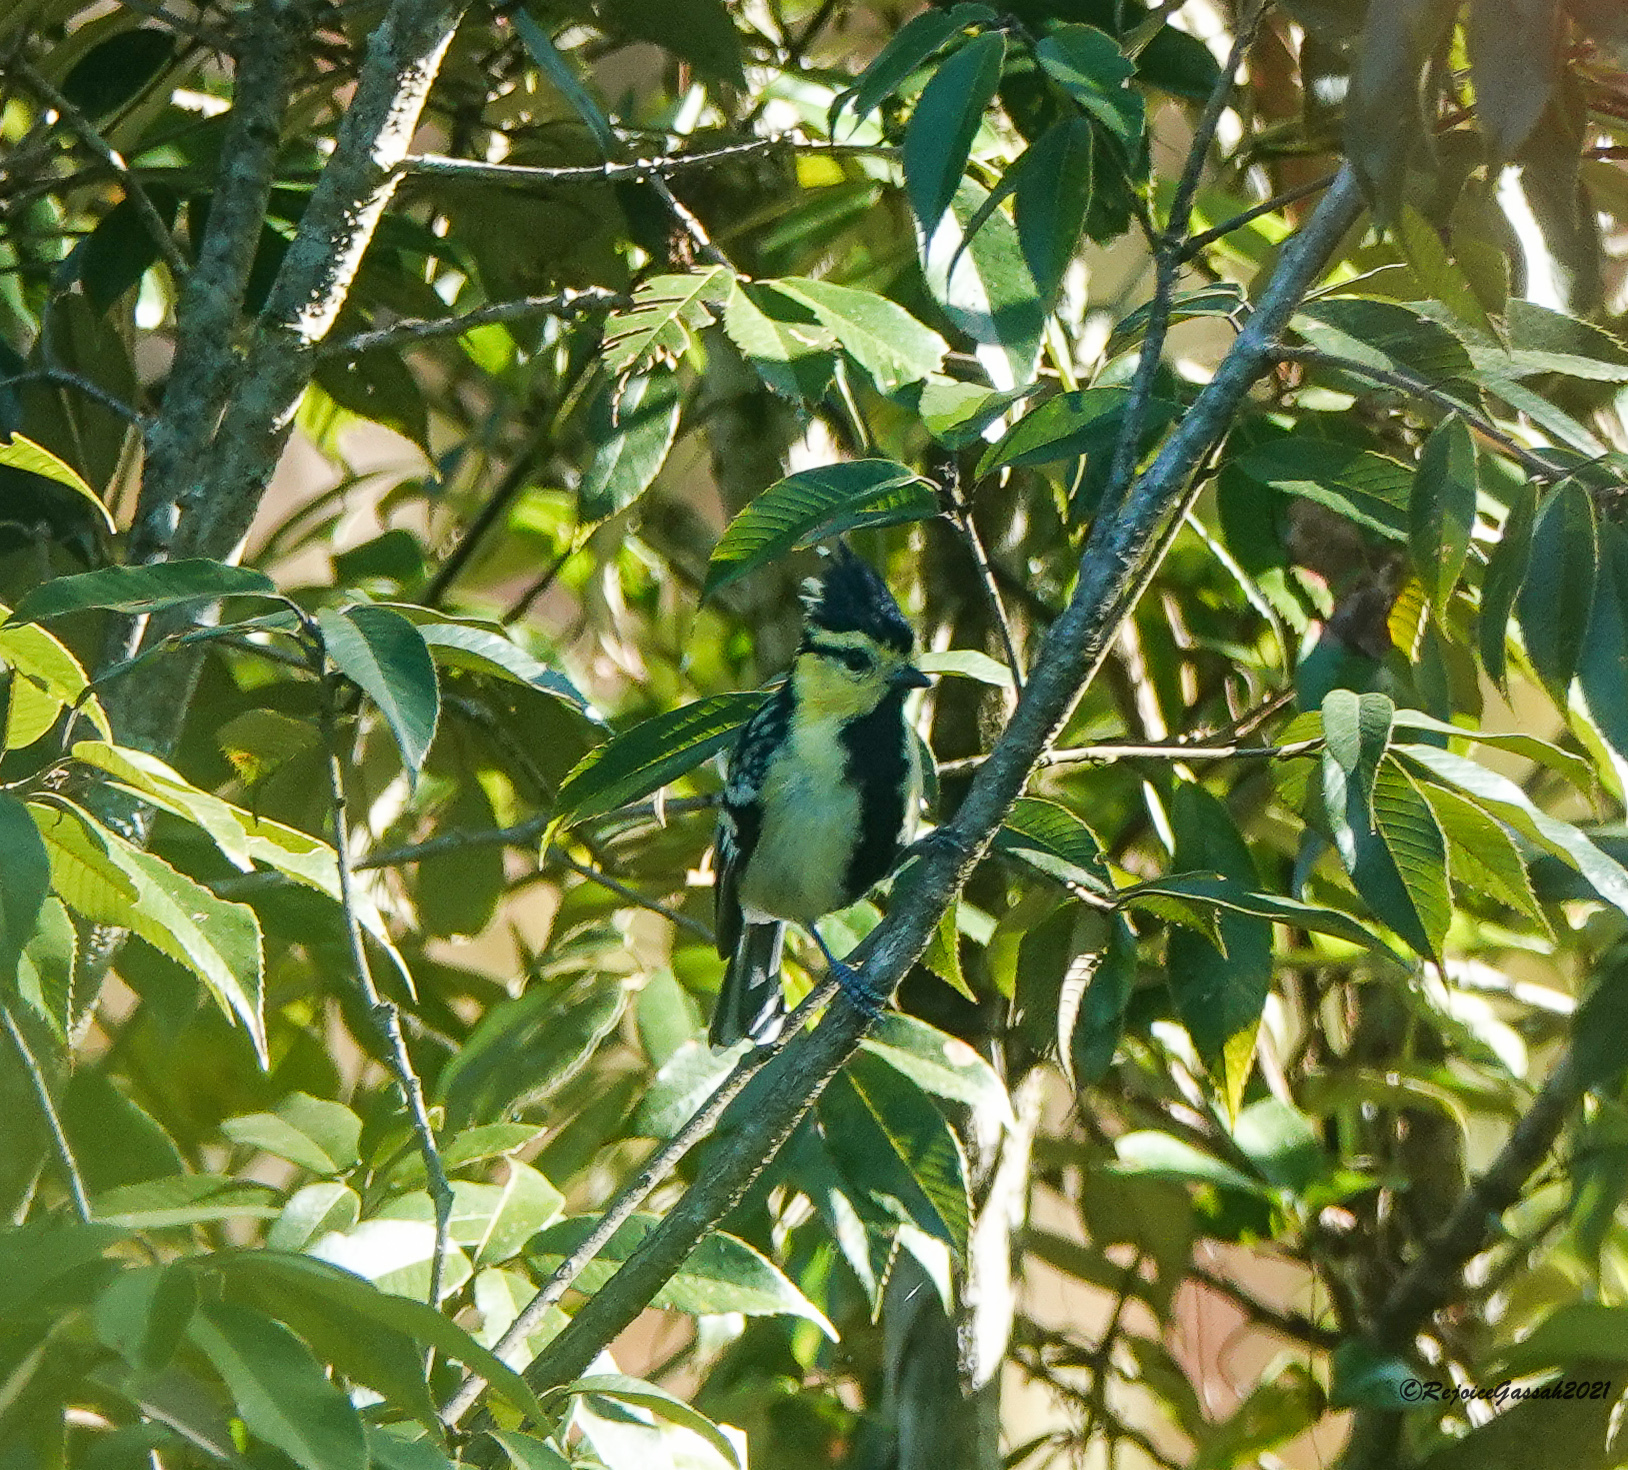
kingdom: Animalia
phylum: Chordata
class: Aves
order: Passeriformes
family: Paridae
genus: Parus
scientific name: Parus spilonotus
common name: Yellow-cheeked tit
